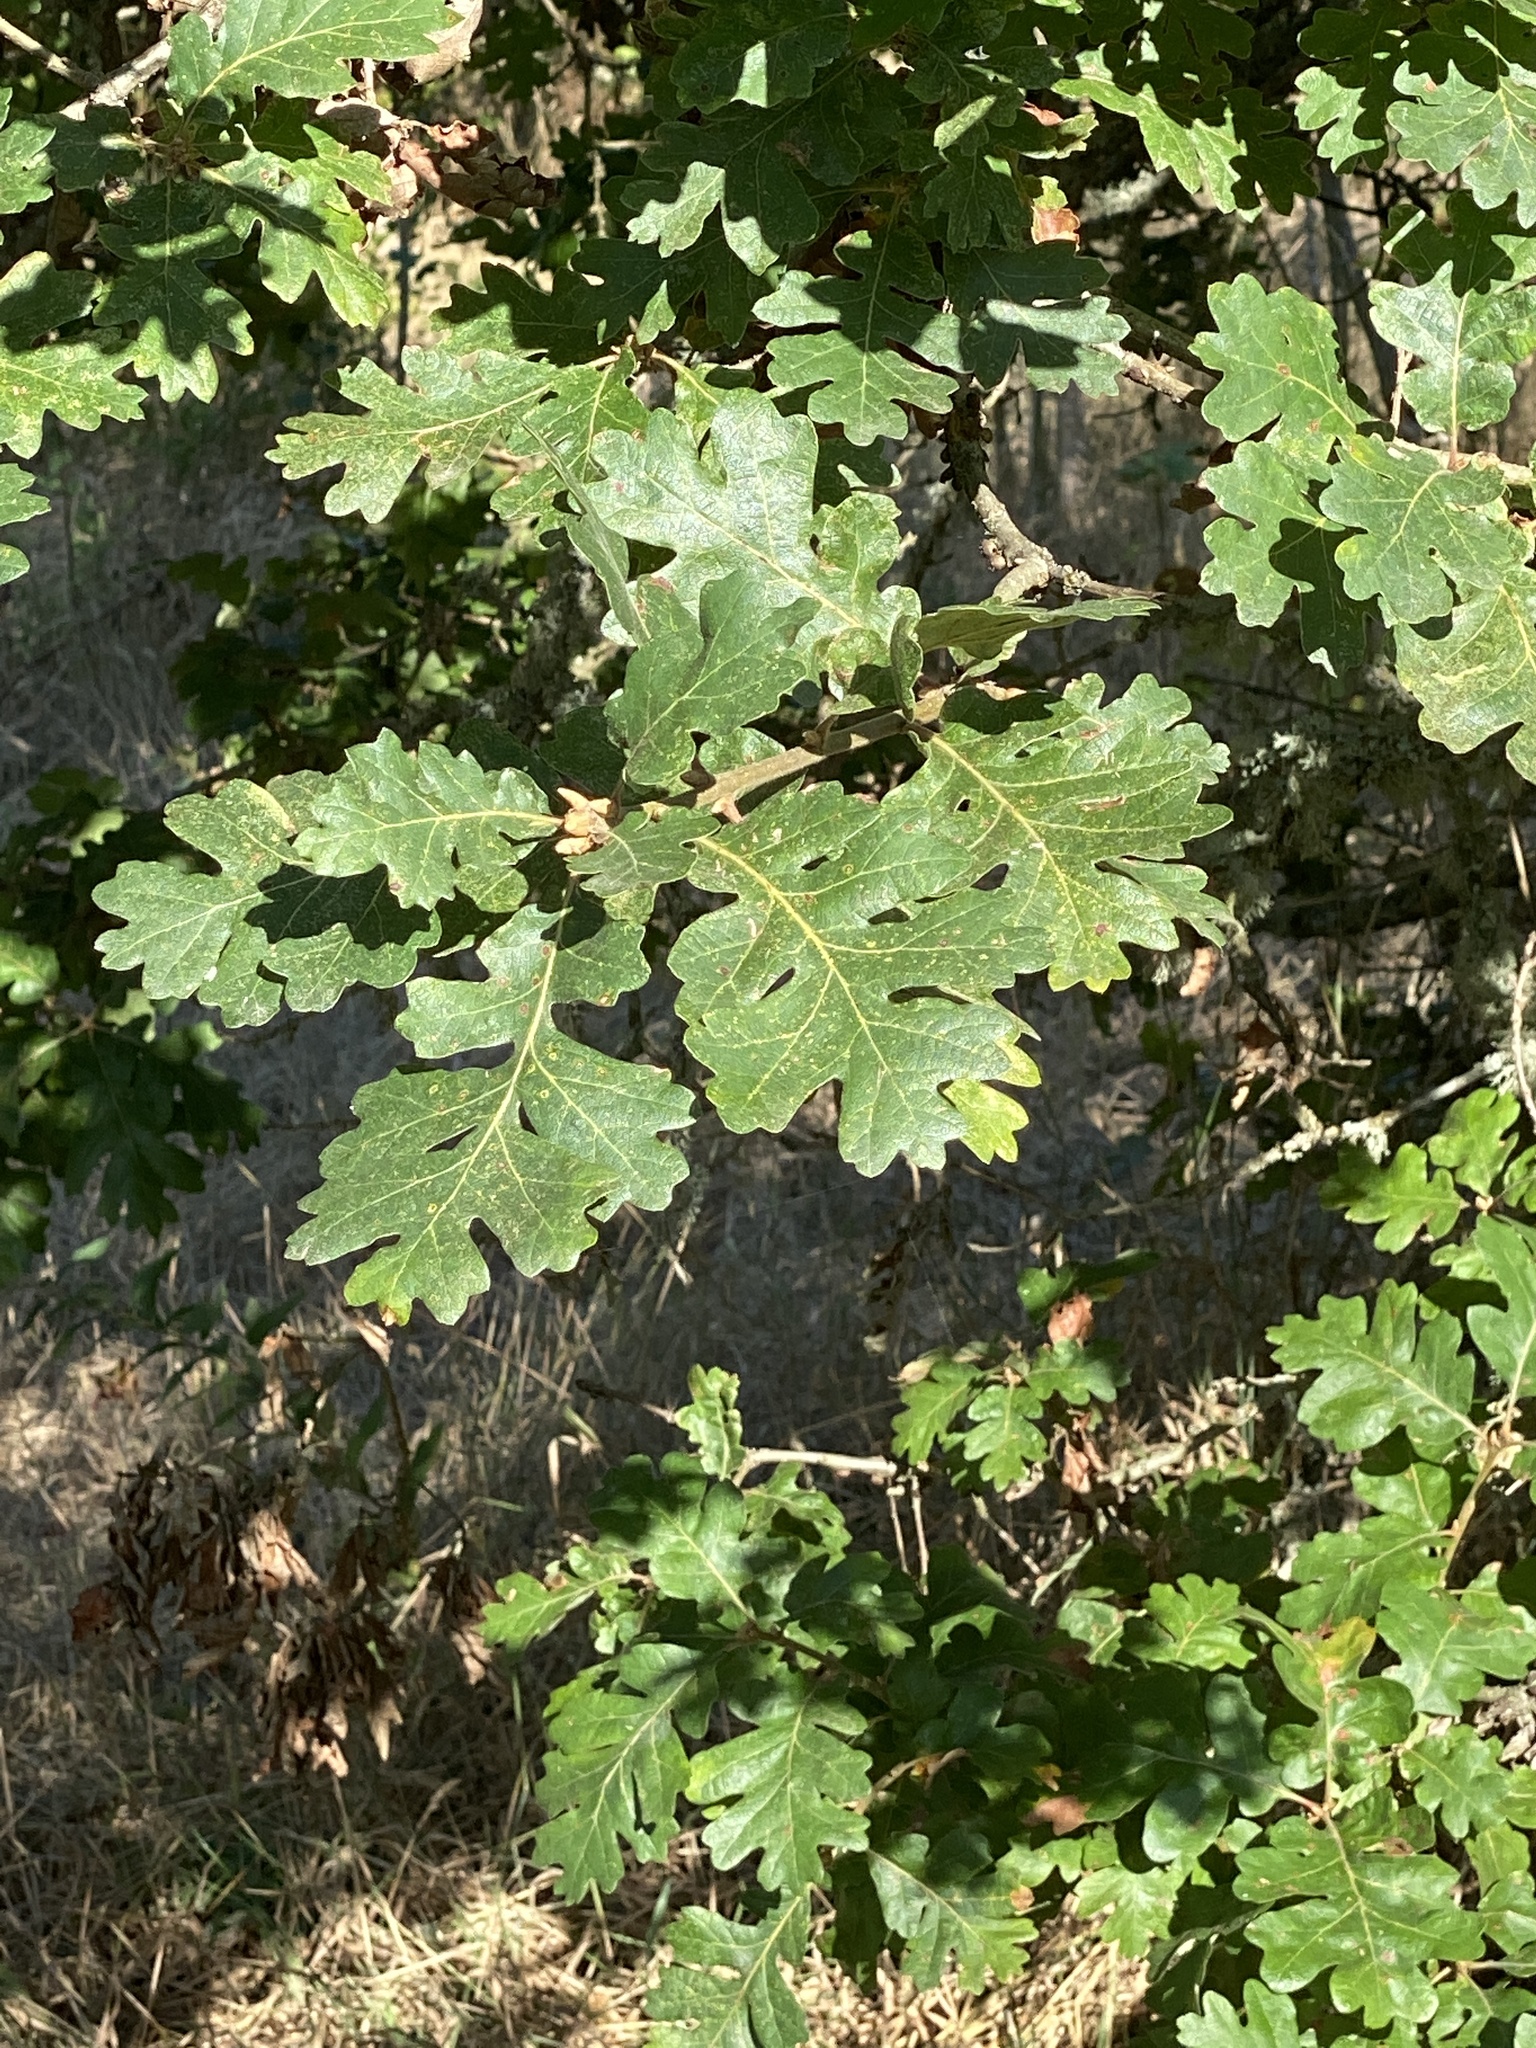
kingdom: Plantae
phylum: Tracheophyta
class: Magnoliopsida
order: Fagales
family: Fagaceae
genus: Quercus
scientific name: Quercus garryana
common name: Garry oak
